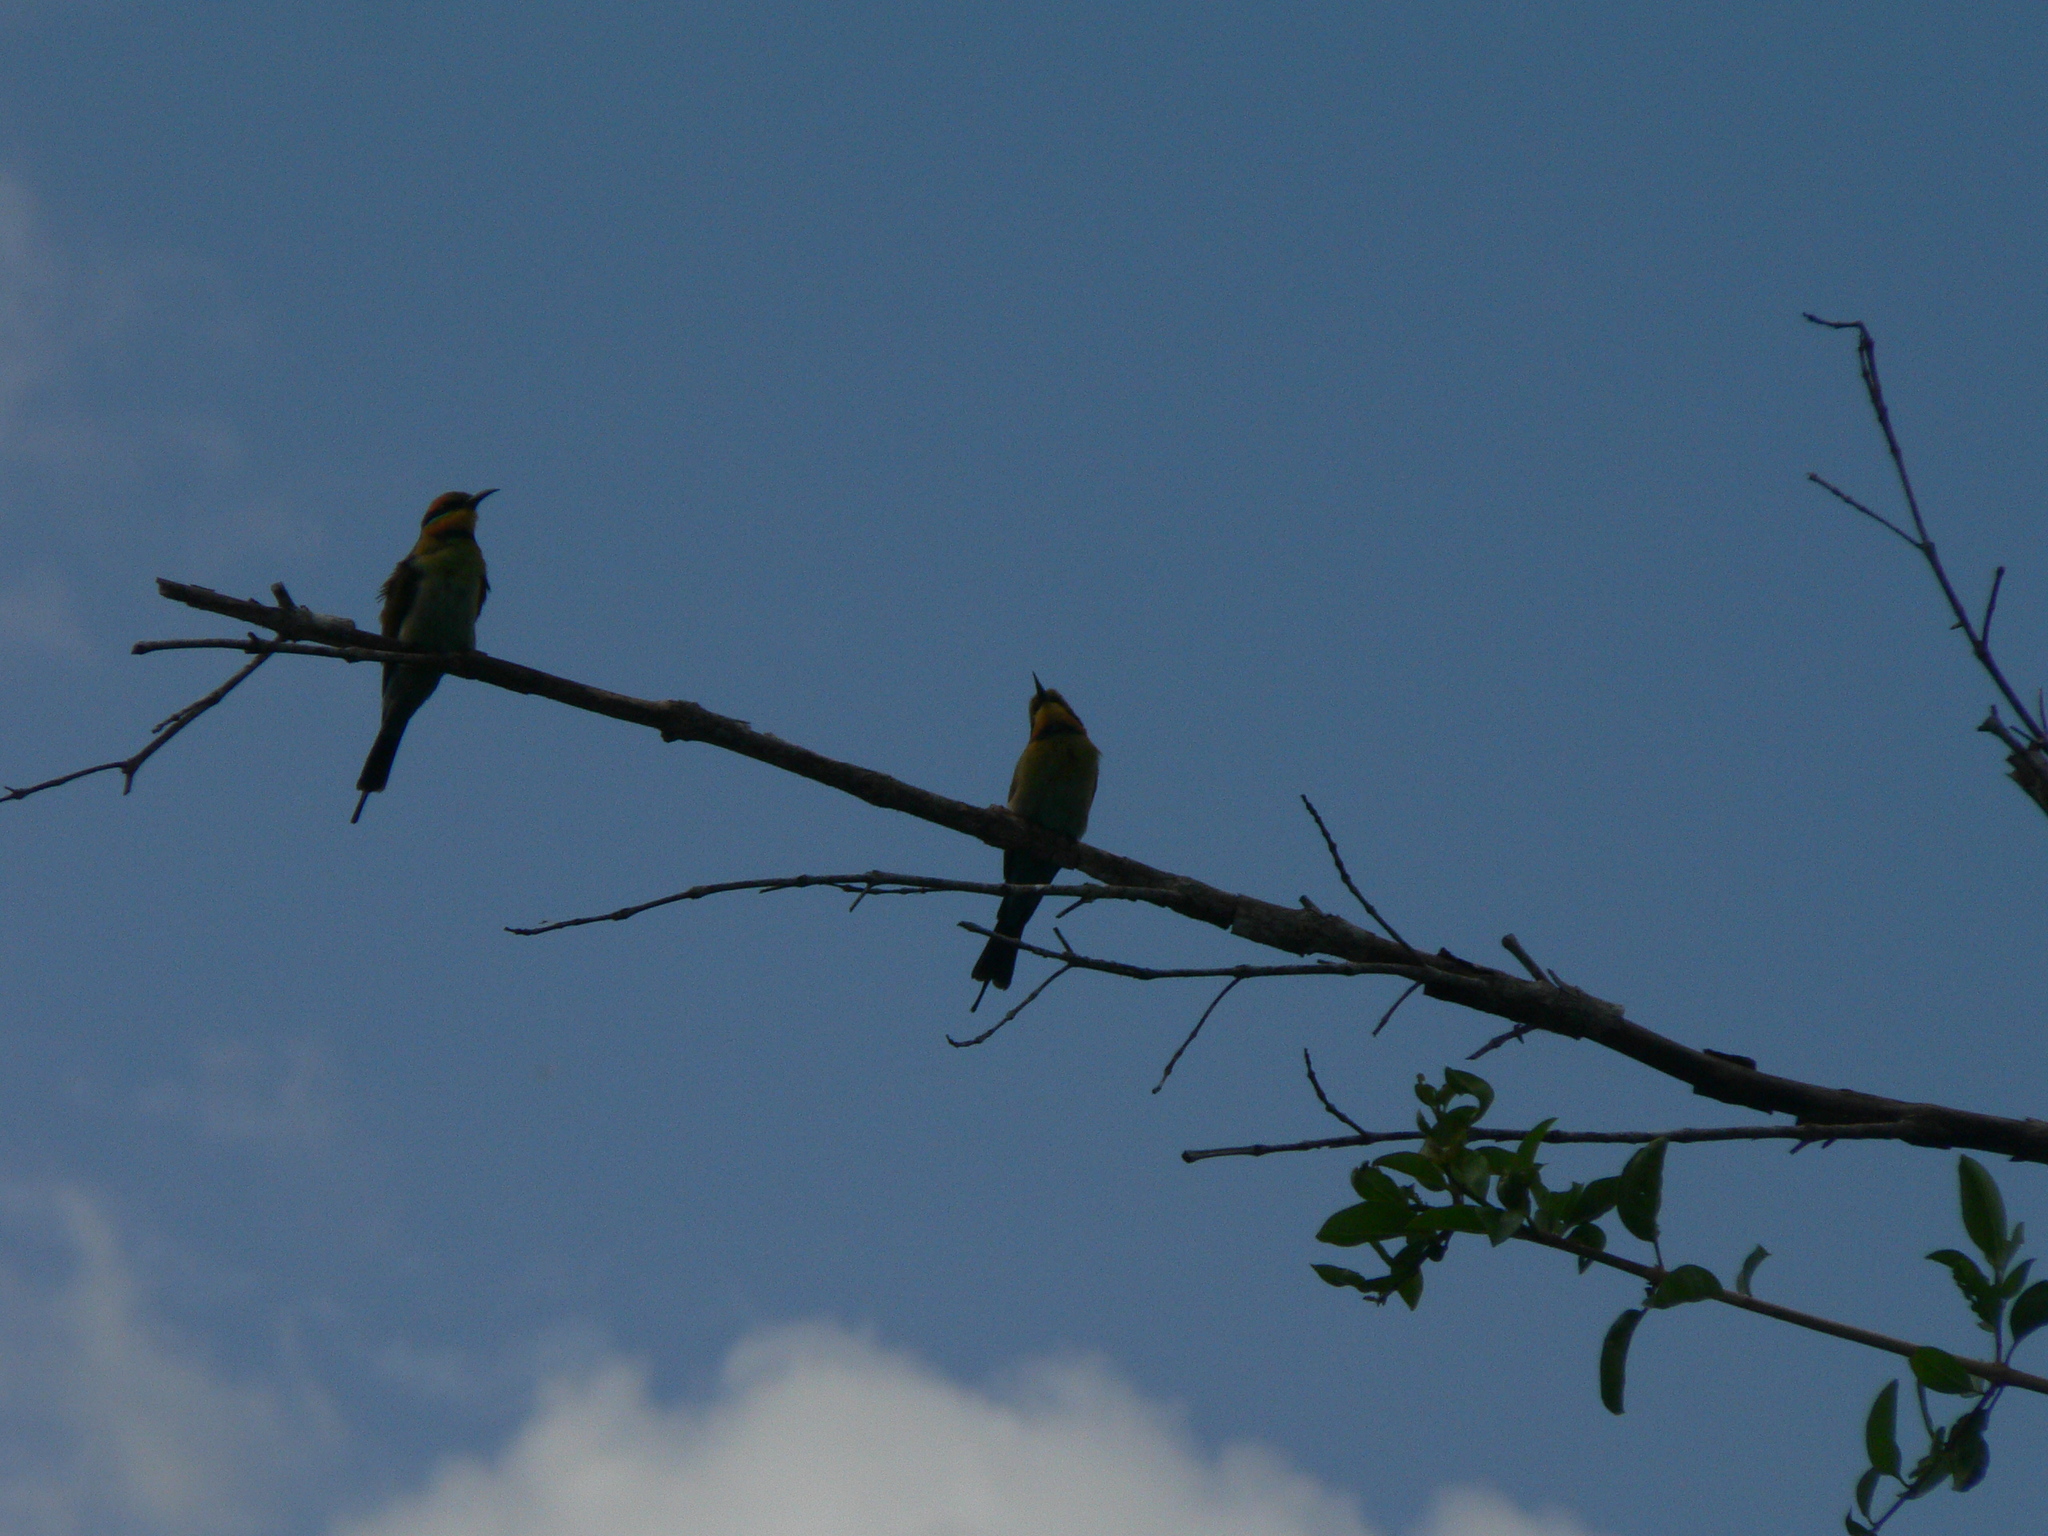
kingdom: Animalia
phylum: Chordata
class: Aves
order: Coraciiformes
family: Meropidae
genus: Merops
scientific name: Merops ornatus
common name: Rainbow bee-eater
